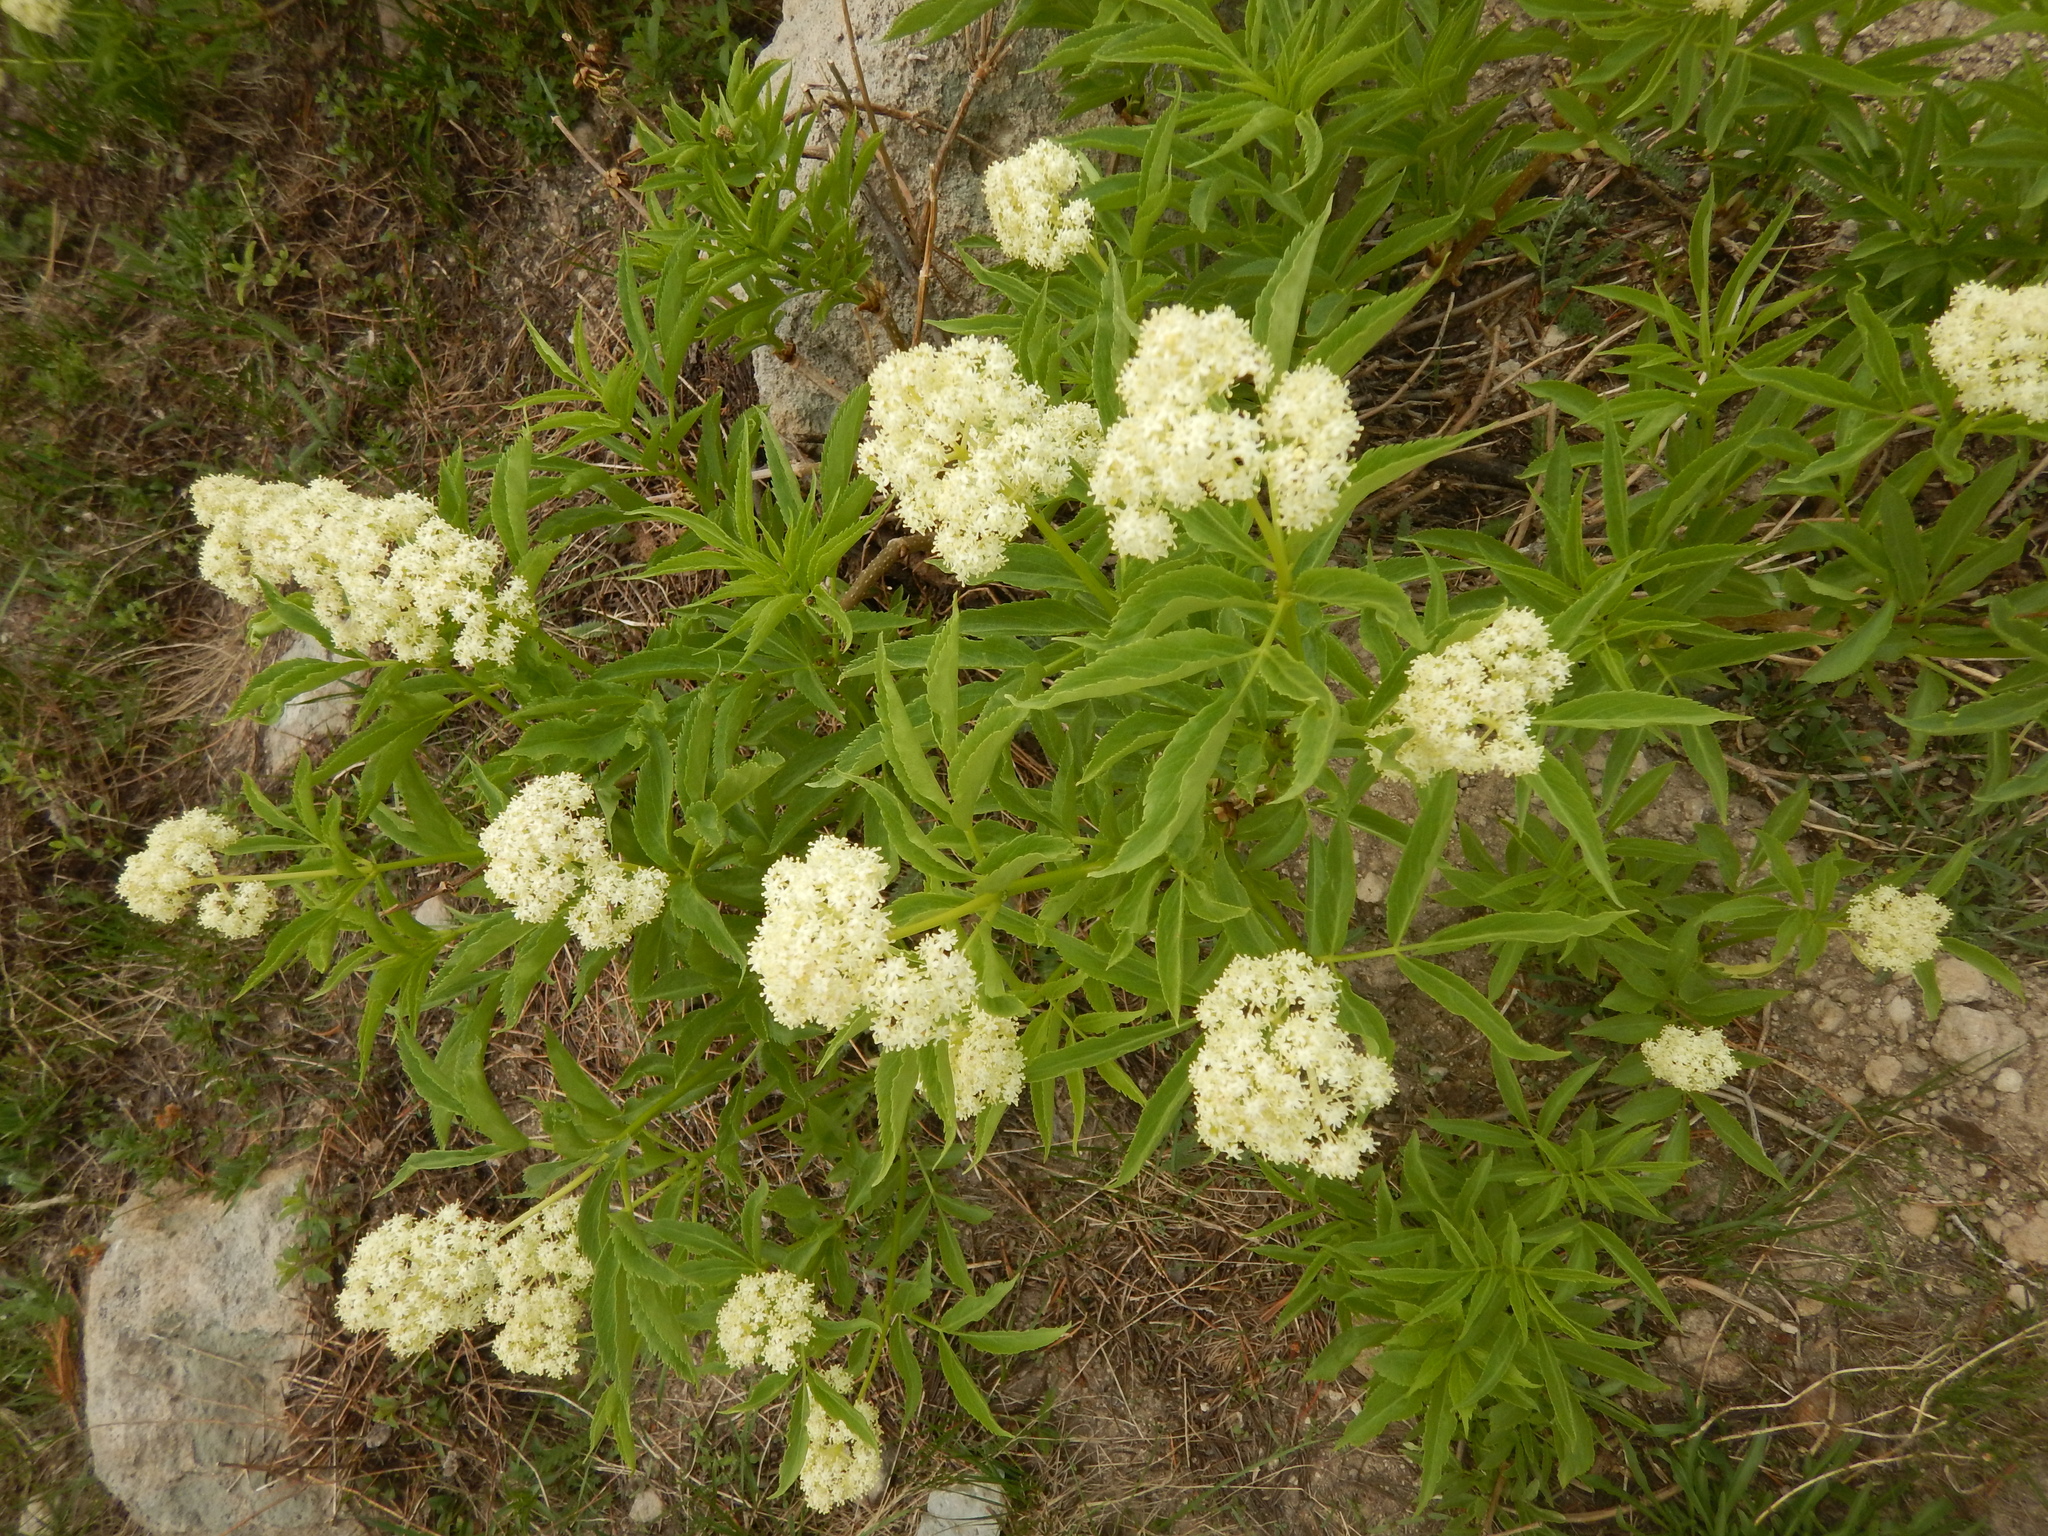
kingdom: Plantae
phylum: Tracheophyta
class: Magnoliopsida
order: Dipsacales
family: Viburnaceae
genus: Sambucus
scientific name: Sambucus racemosa
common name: Red-berried elder
